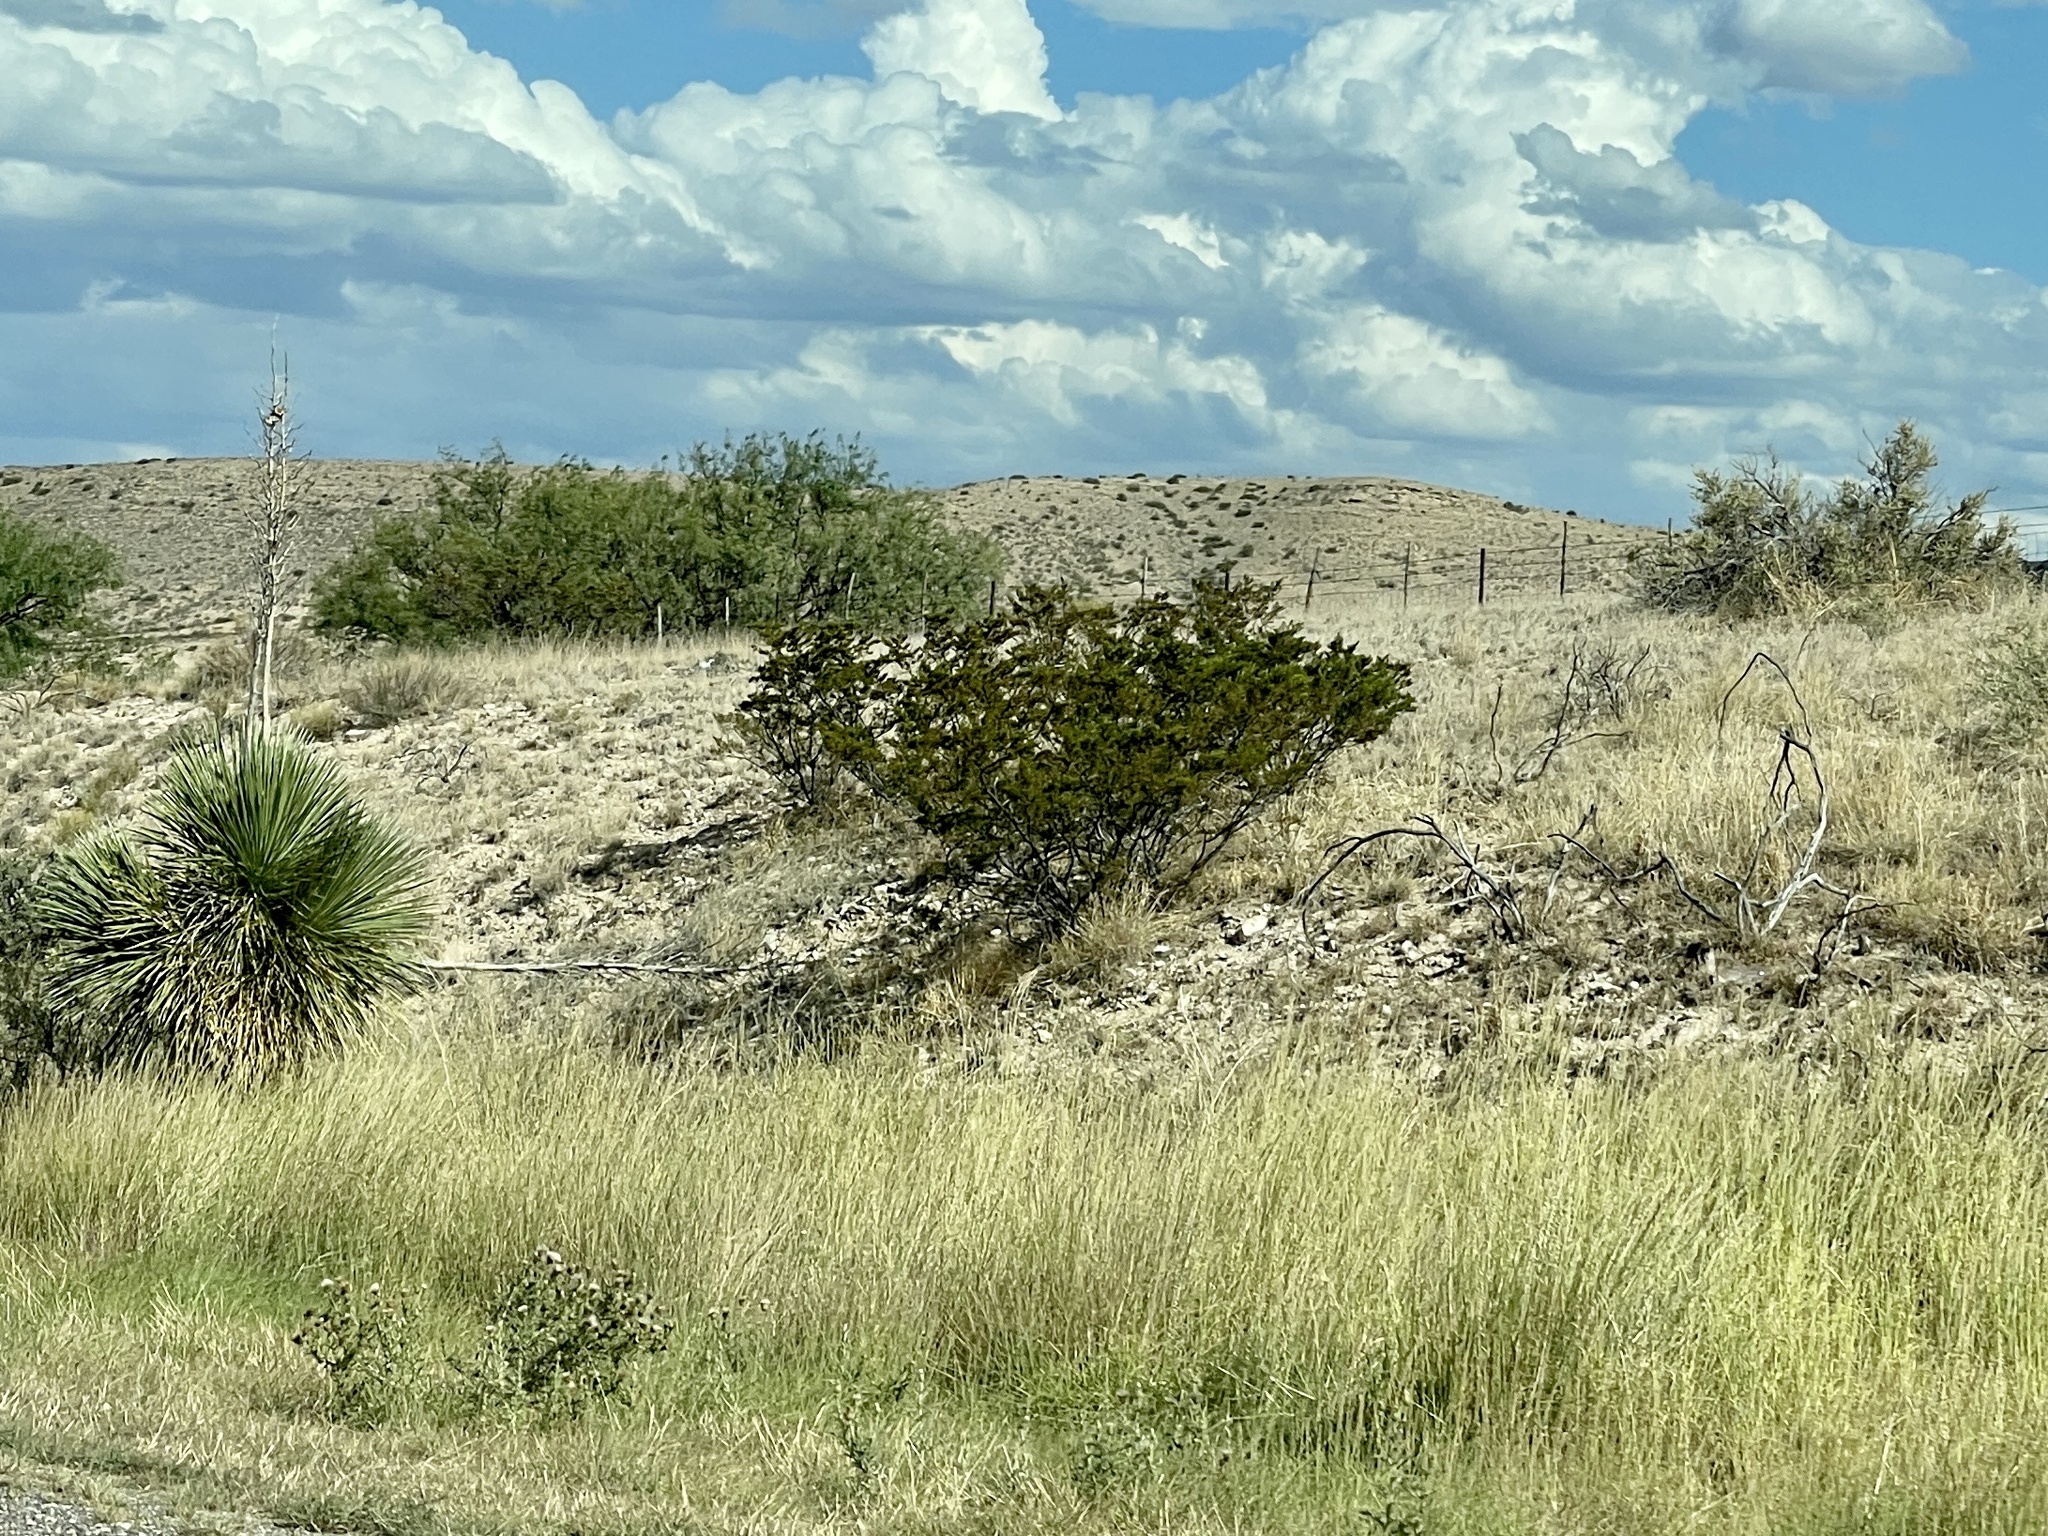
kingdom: Plantae
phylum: Tracheophyta
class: Magnoliopsida
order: Zygophyllales
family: Zygophyllaceae
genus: Larrea
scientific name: Larrea tridentata
